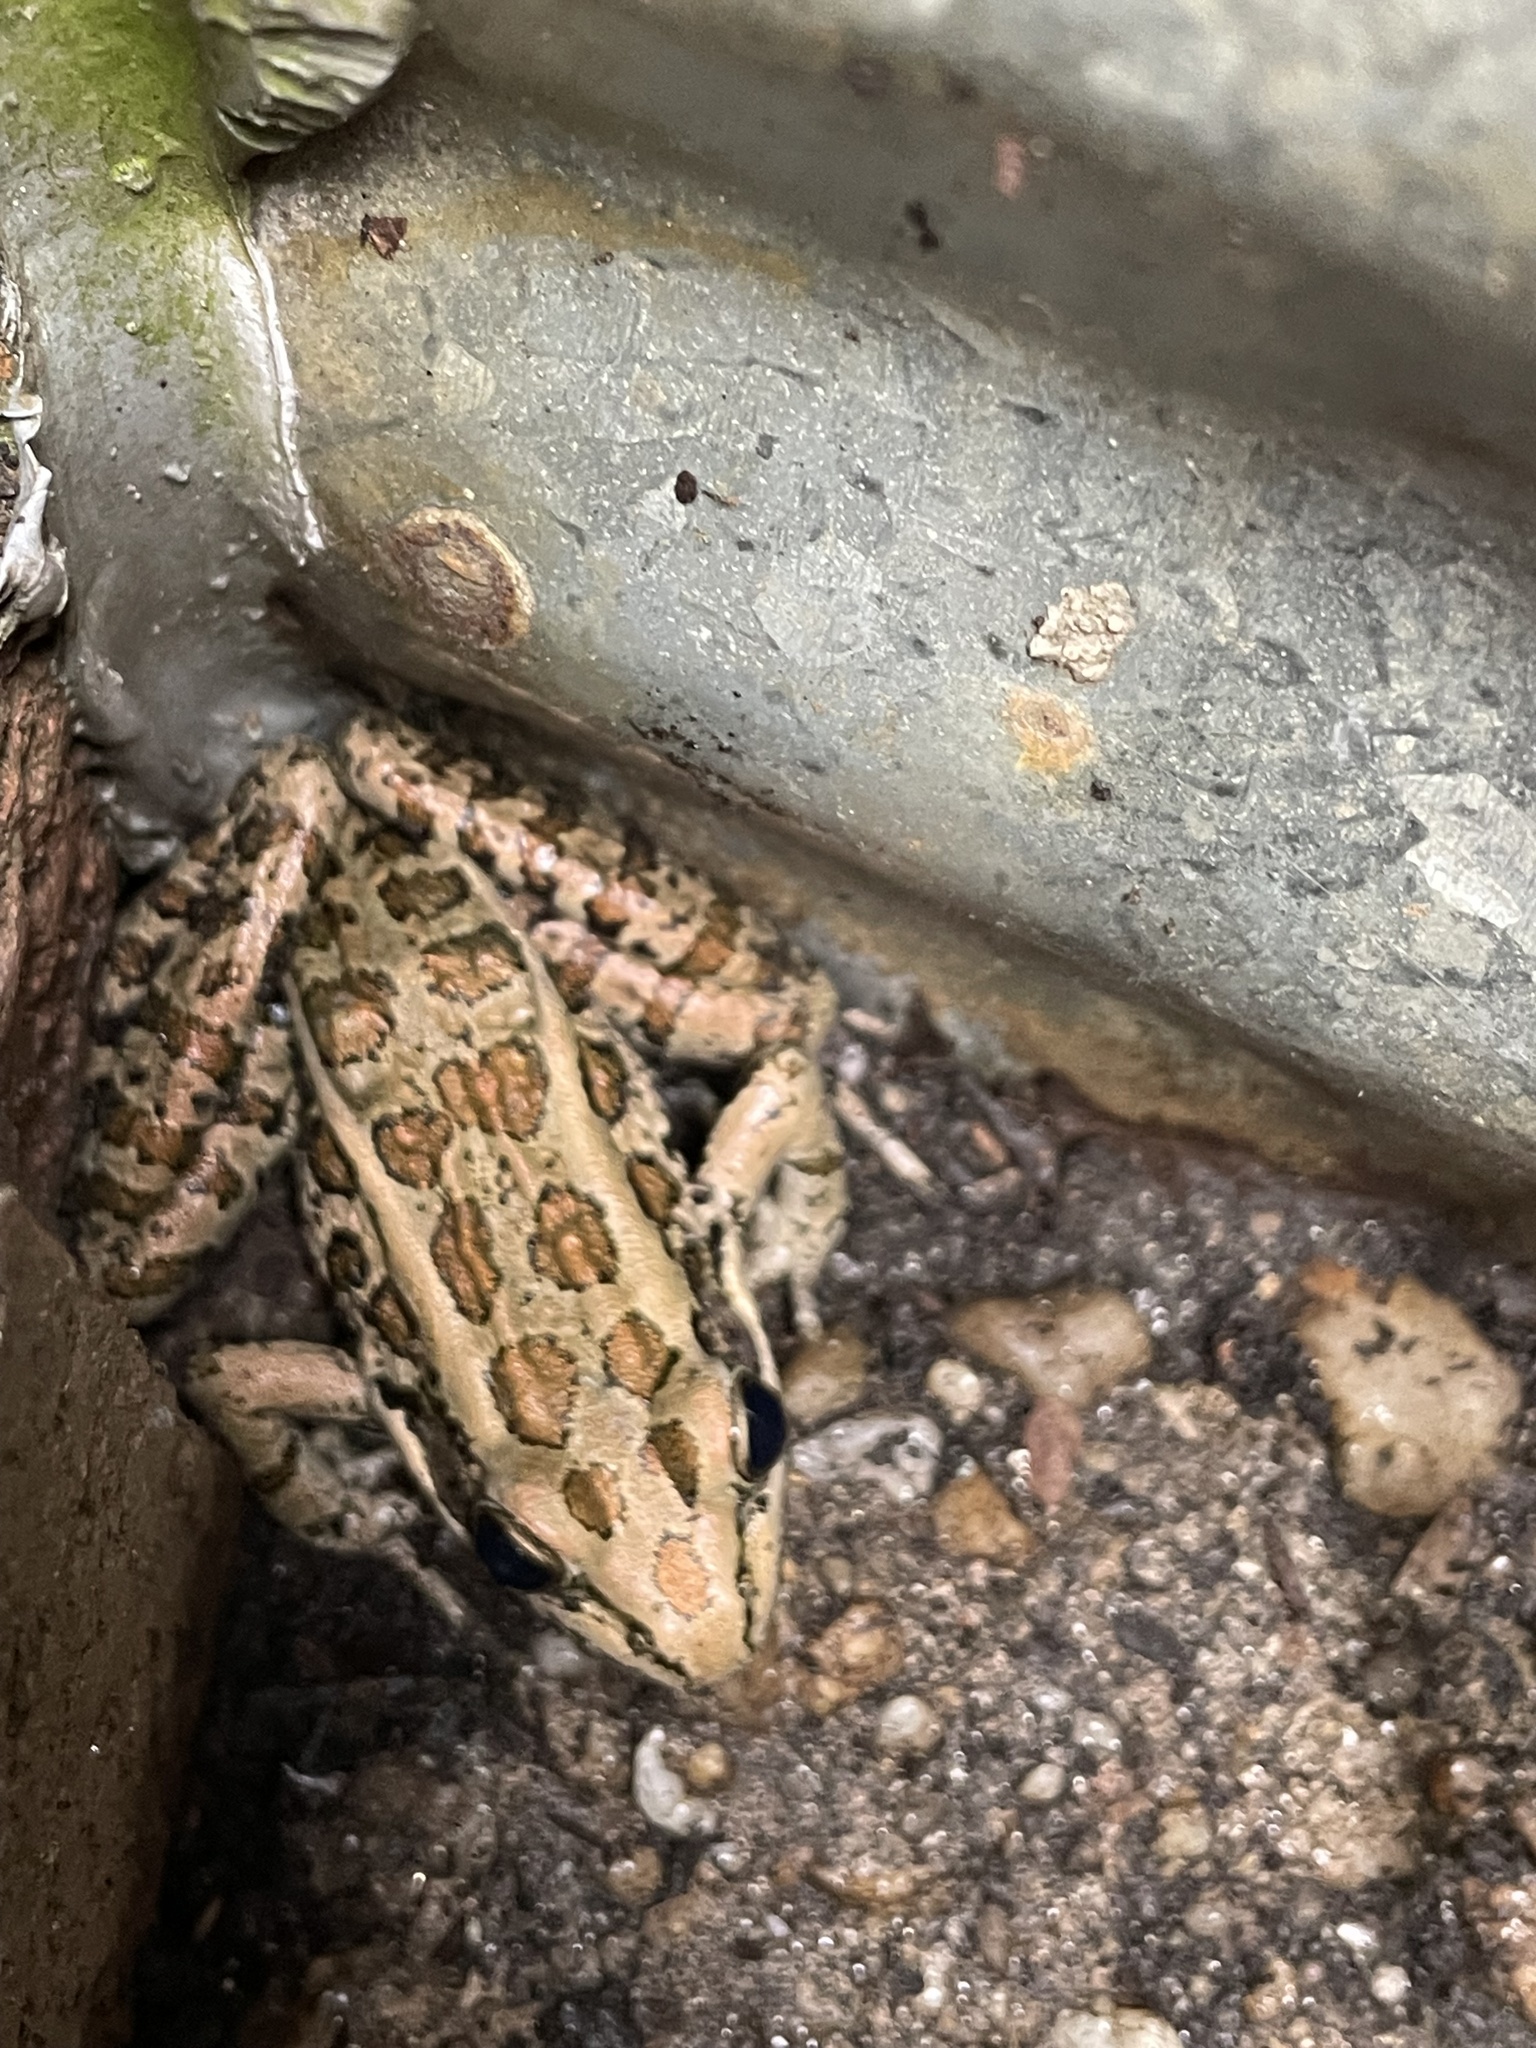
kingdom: Animalia
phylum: Chordata
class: Amphibia
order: Anura
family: Ranidae
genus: Lithobates
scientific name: Lithobates palustris
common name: Pickerel frog
